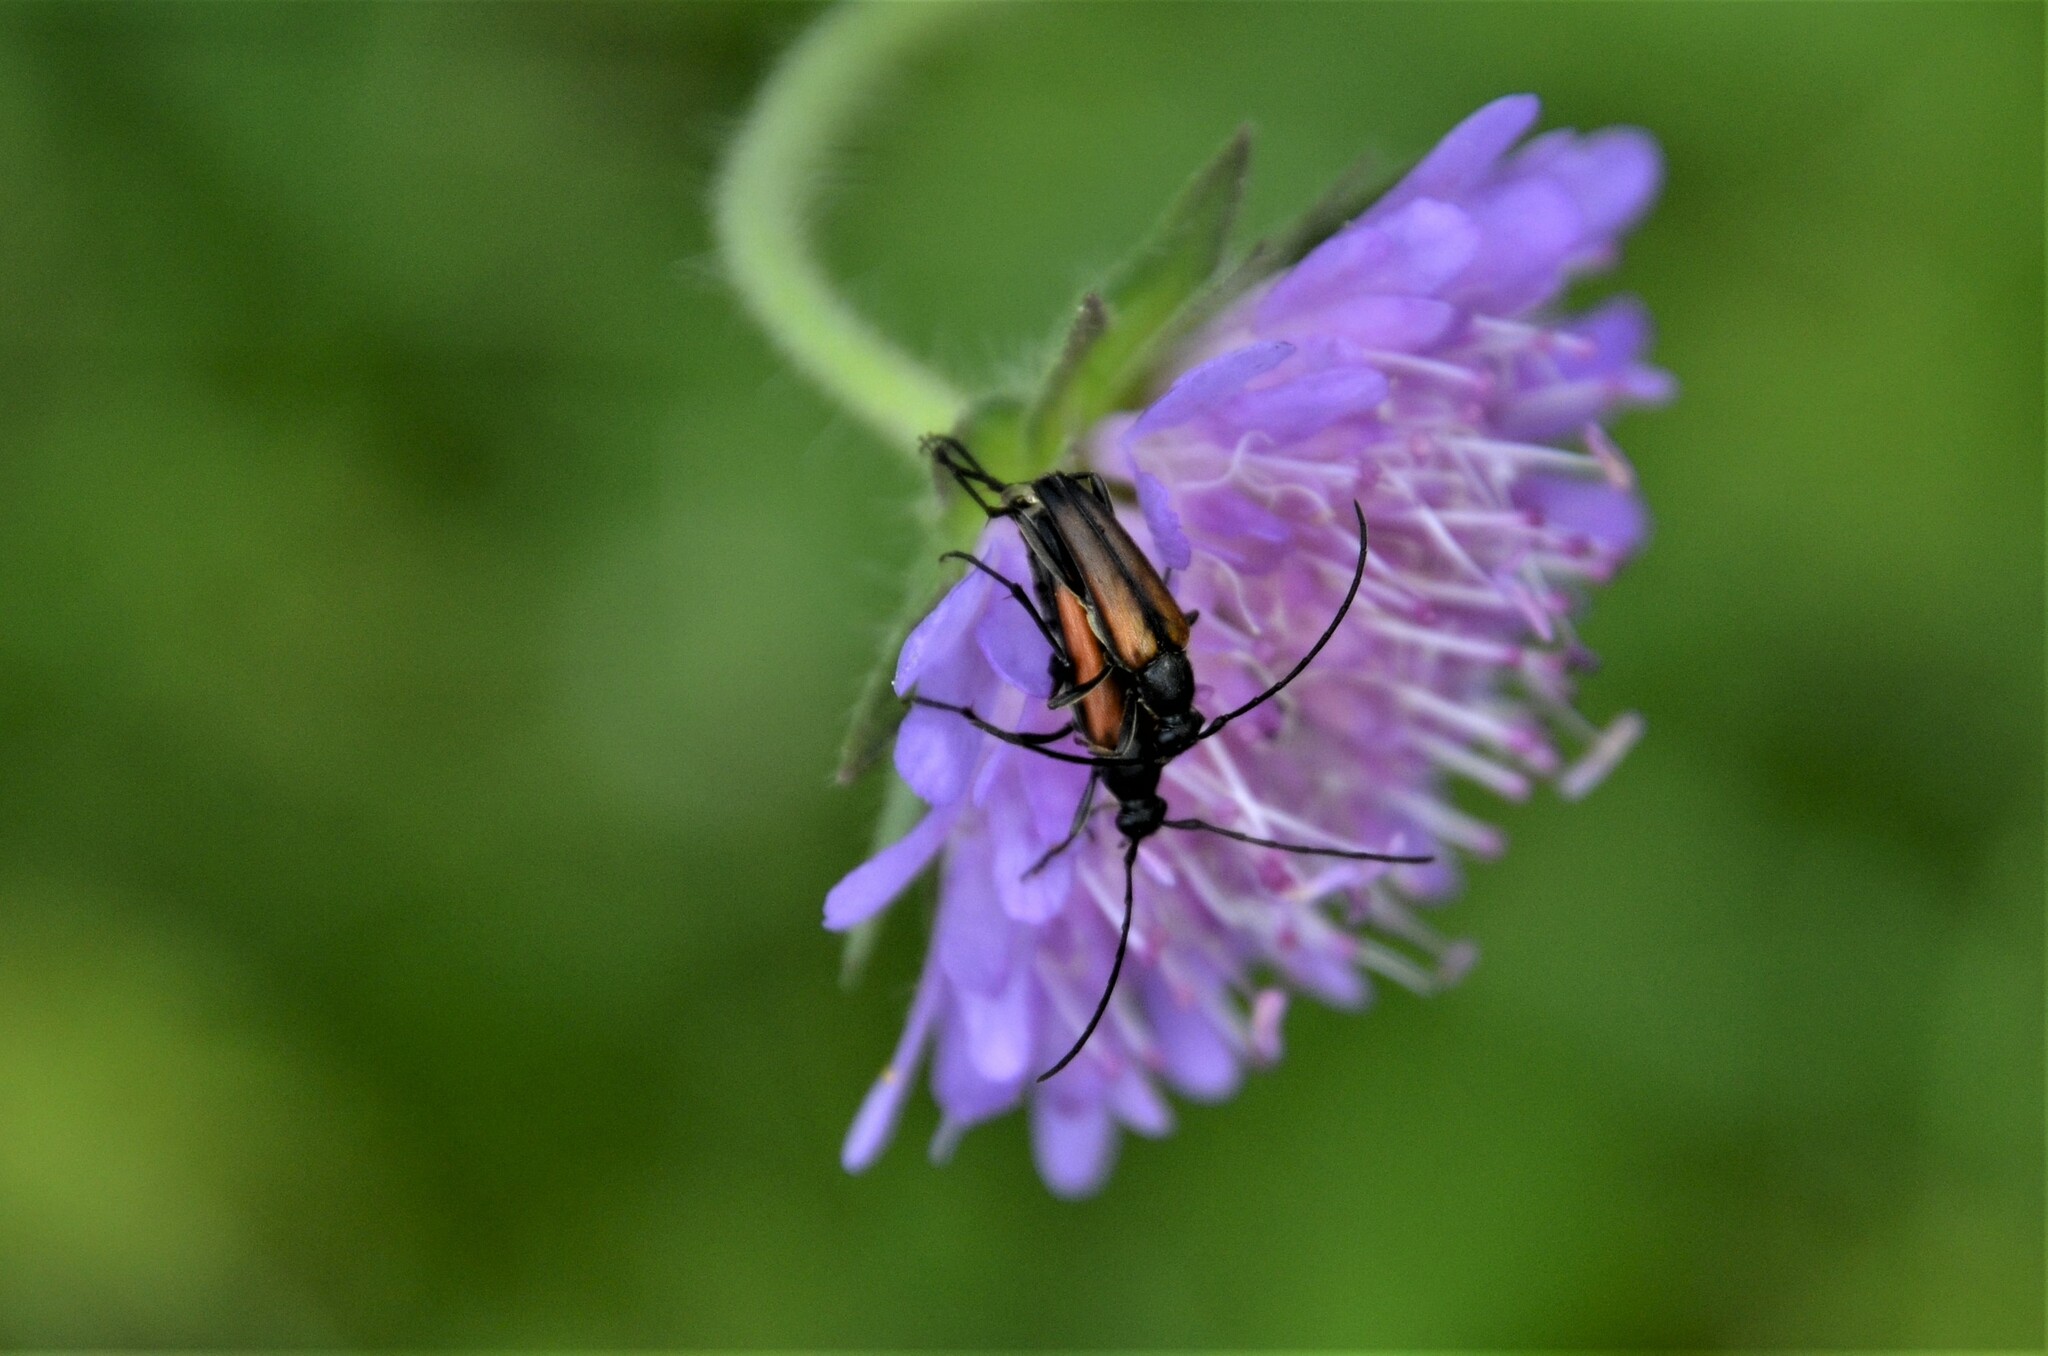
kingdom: Animalia
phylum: Arthropoda
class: Insecta
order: Coleoptera
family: Cerambycidae
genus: Stenurella
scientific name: Stenurella melanura
